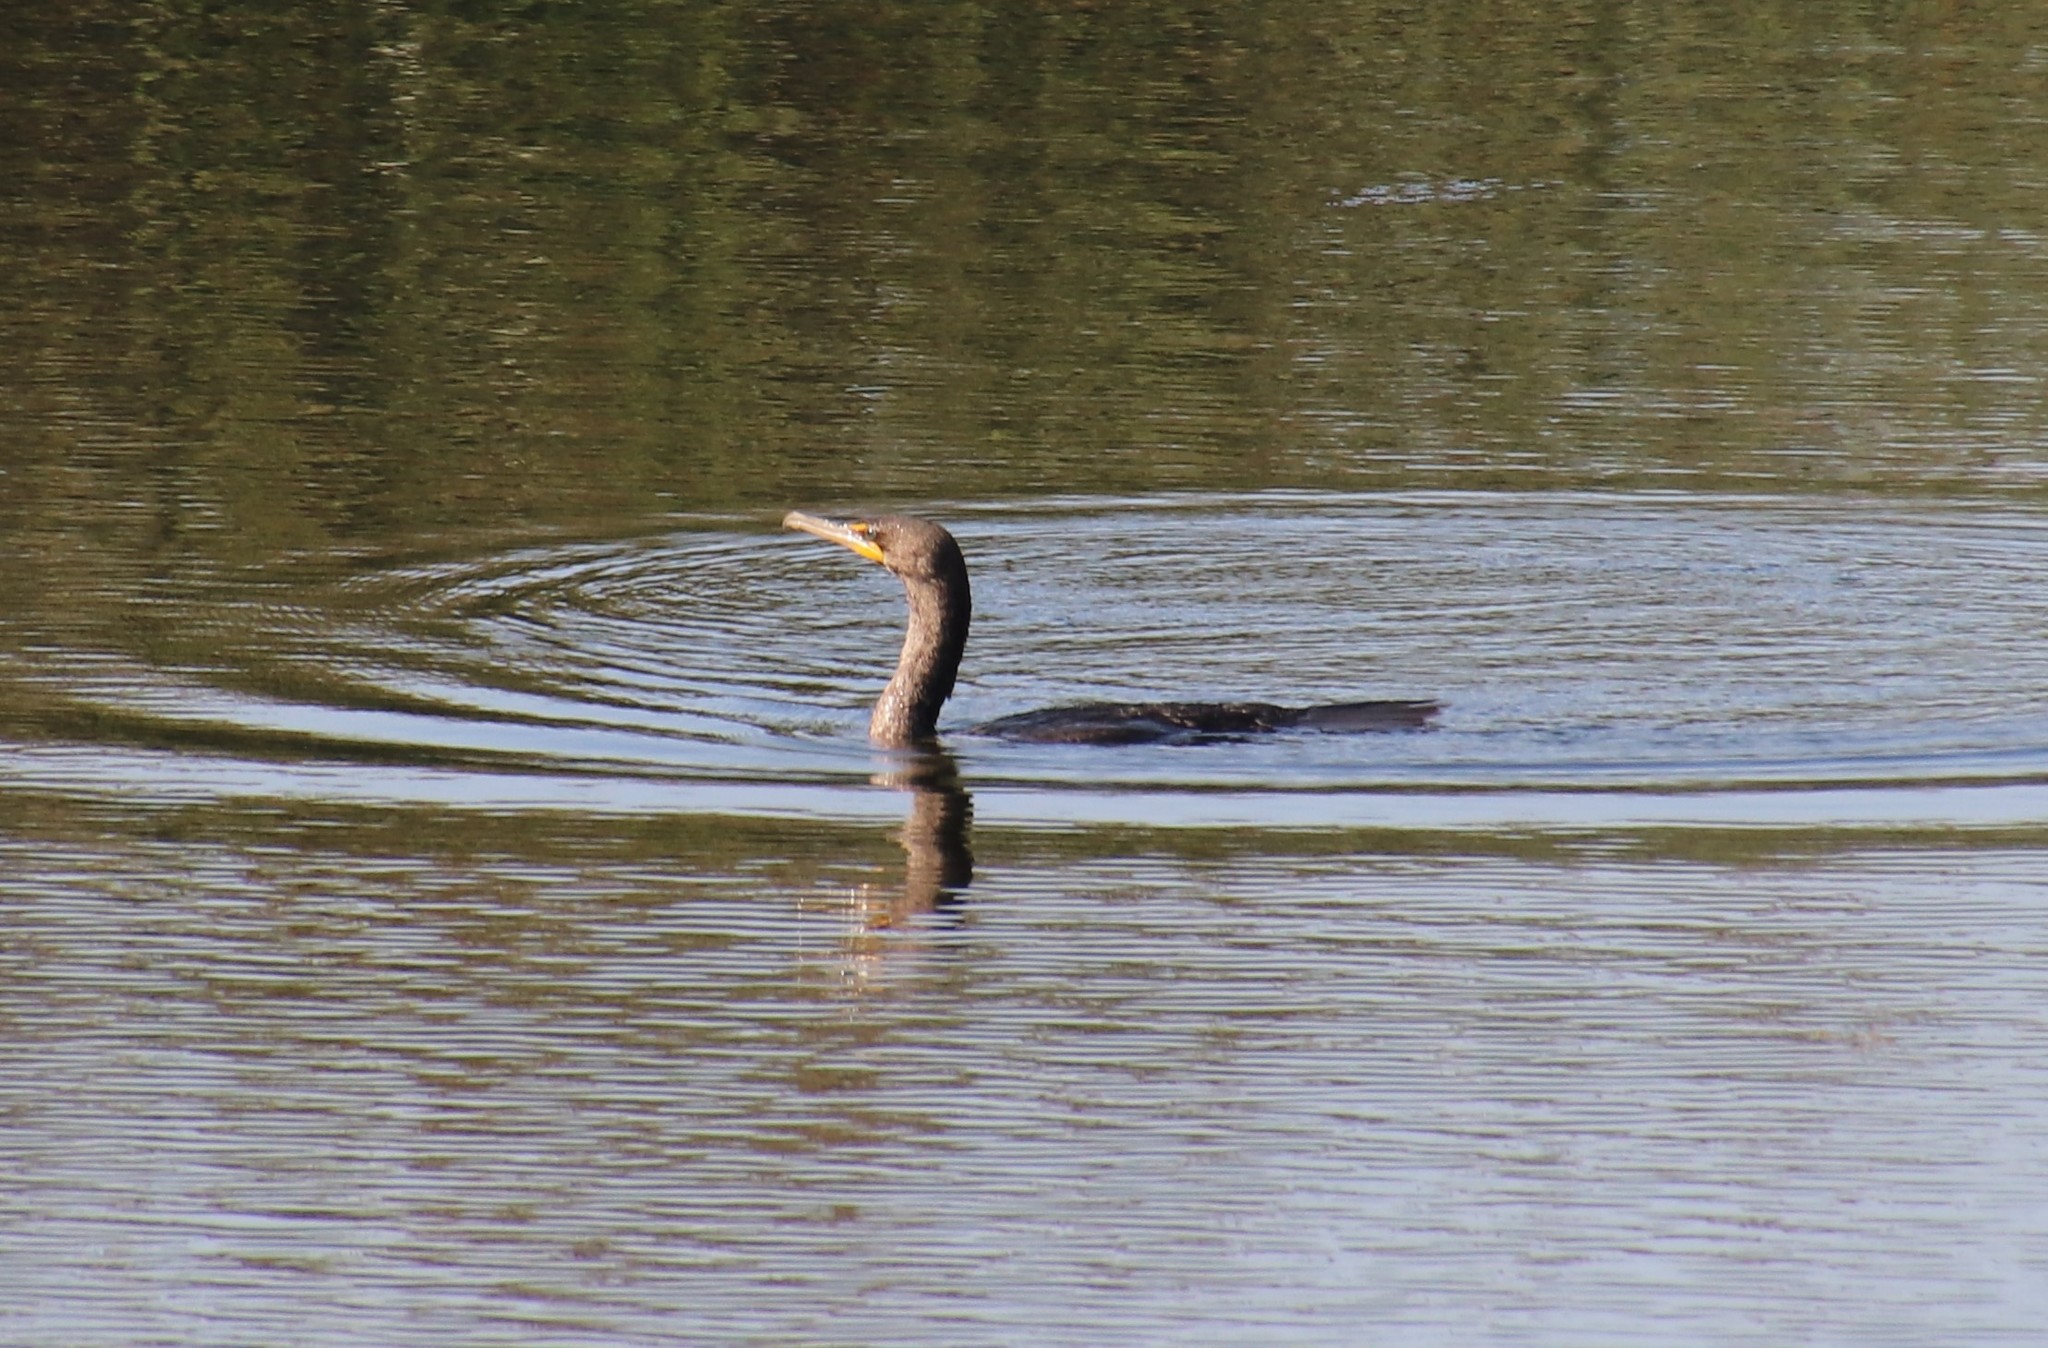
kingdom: Animalia
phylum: Chordata
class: Aves
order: Suliformes
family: Phalacrocoracidae
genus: Phalacrocorax
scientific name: Phalacrocorax auritus
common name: Double-crested cormorant
